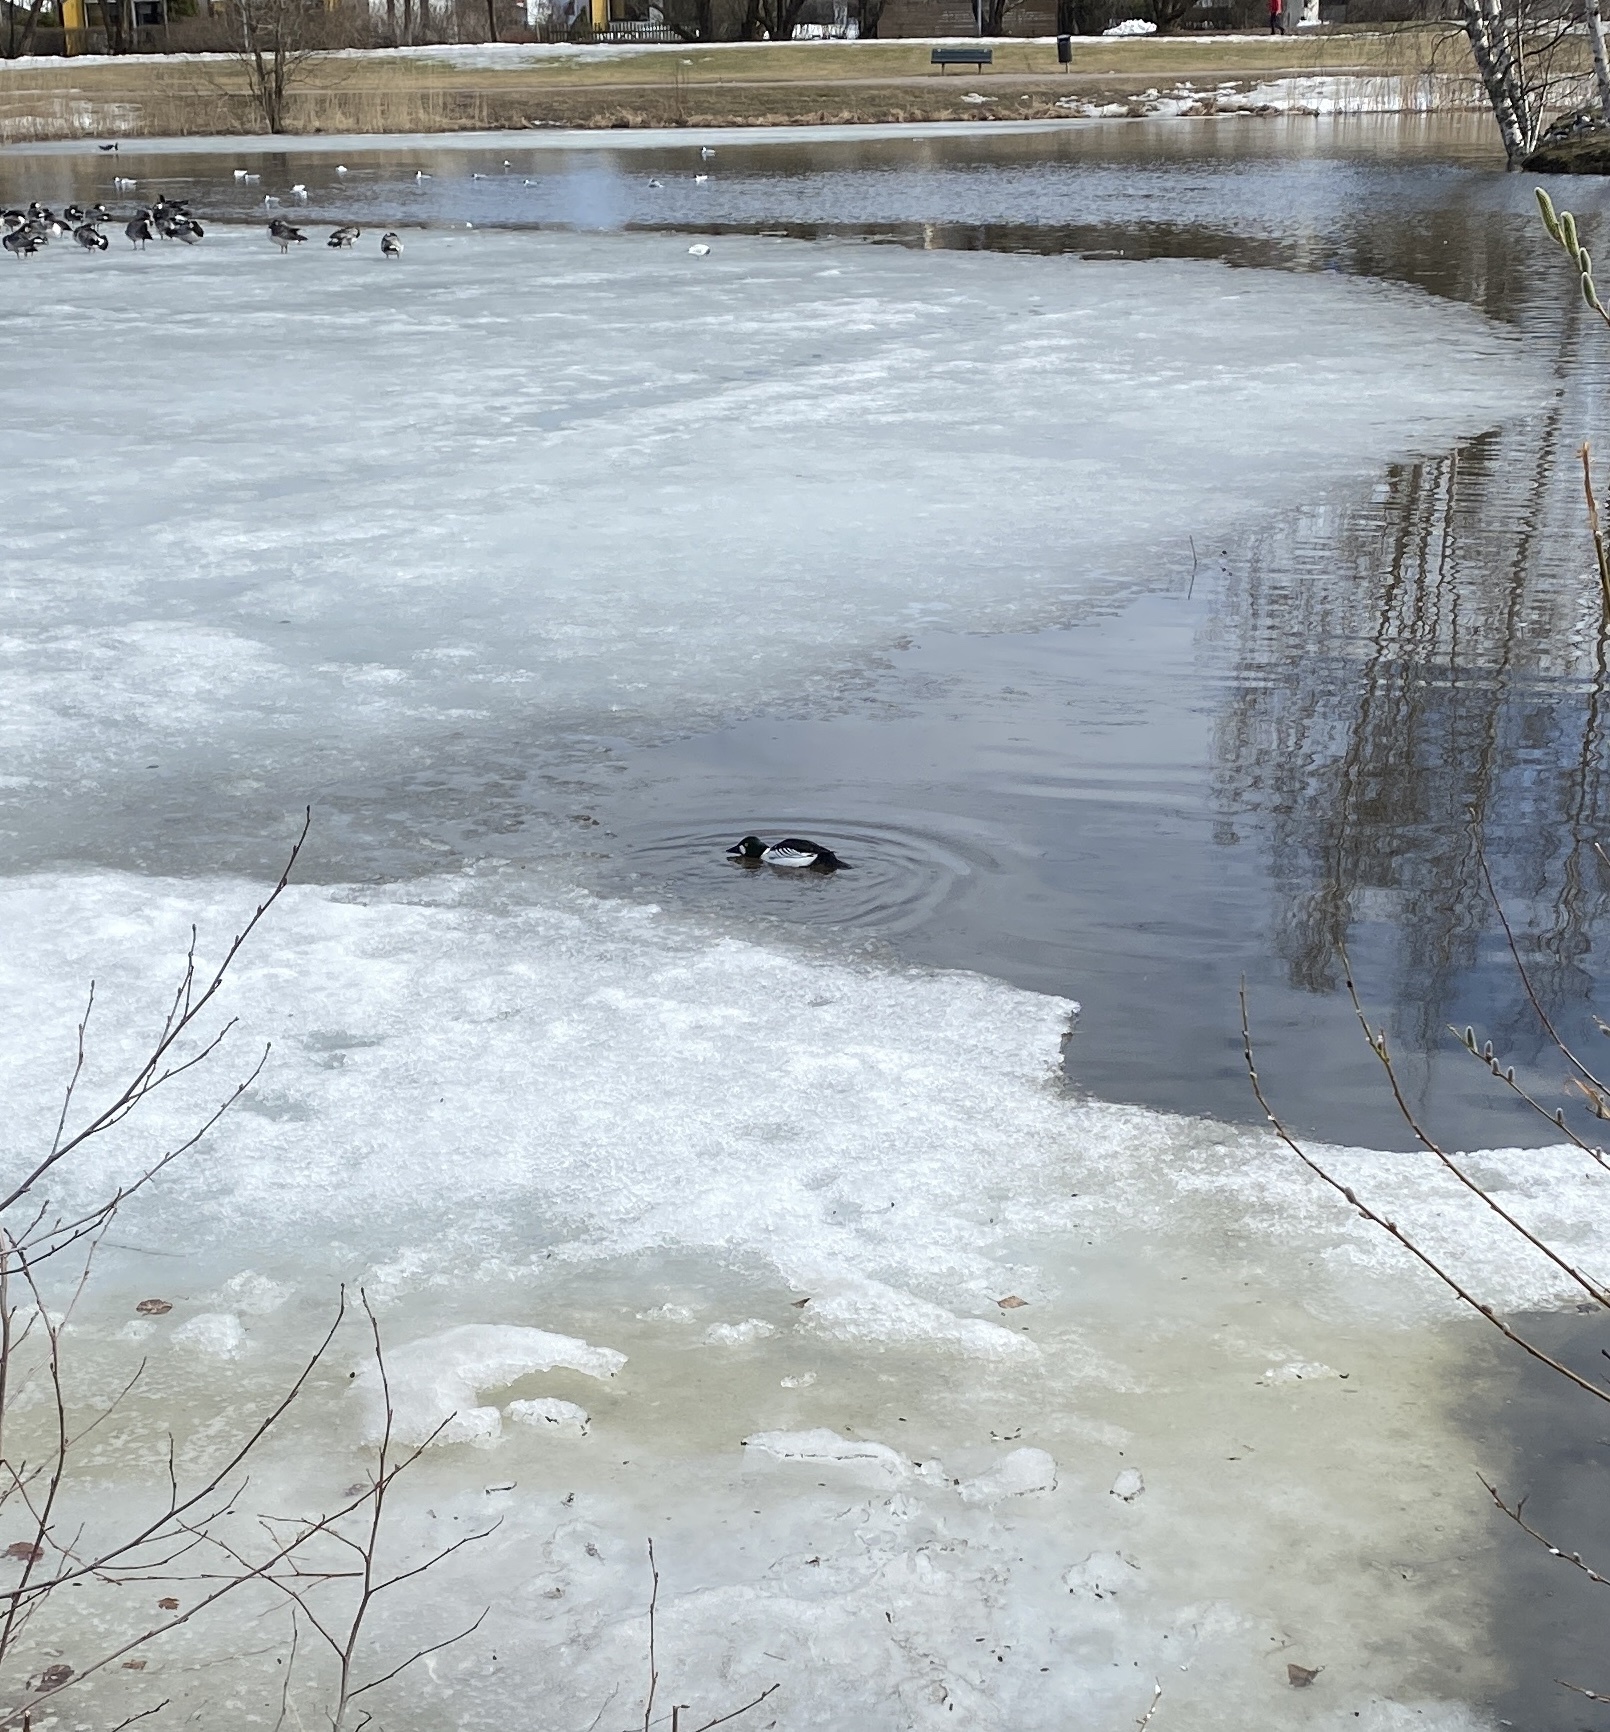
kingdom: Animalia
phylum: Chordata
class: Aves
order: Anseriformes
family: Anatidae
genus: Bucephala
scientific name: Bucephala clangula
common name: Common goldeneye
